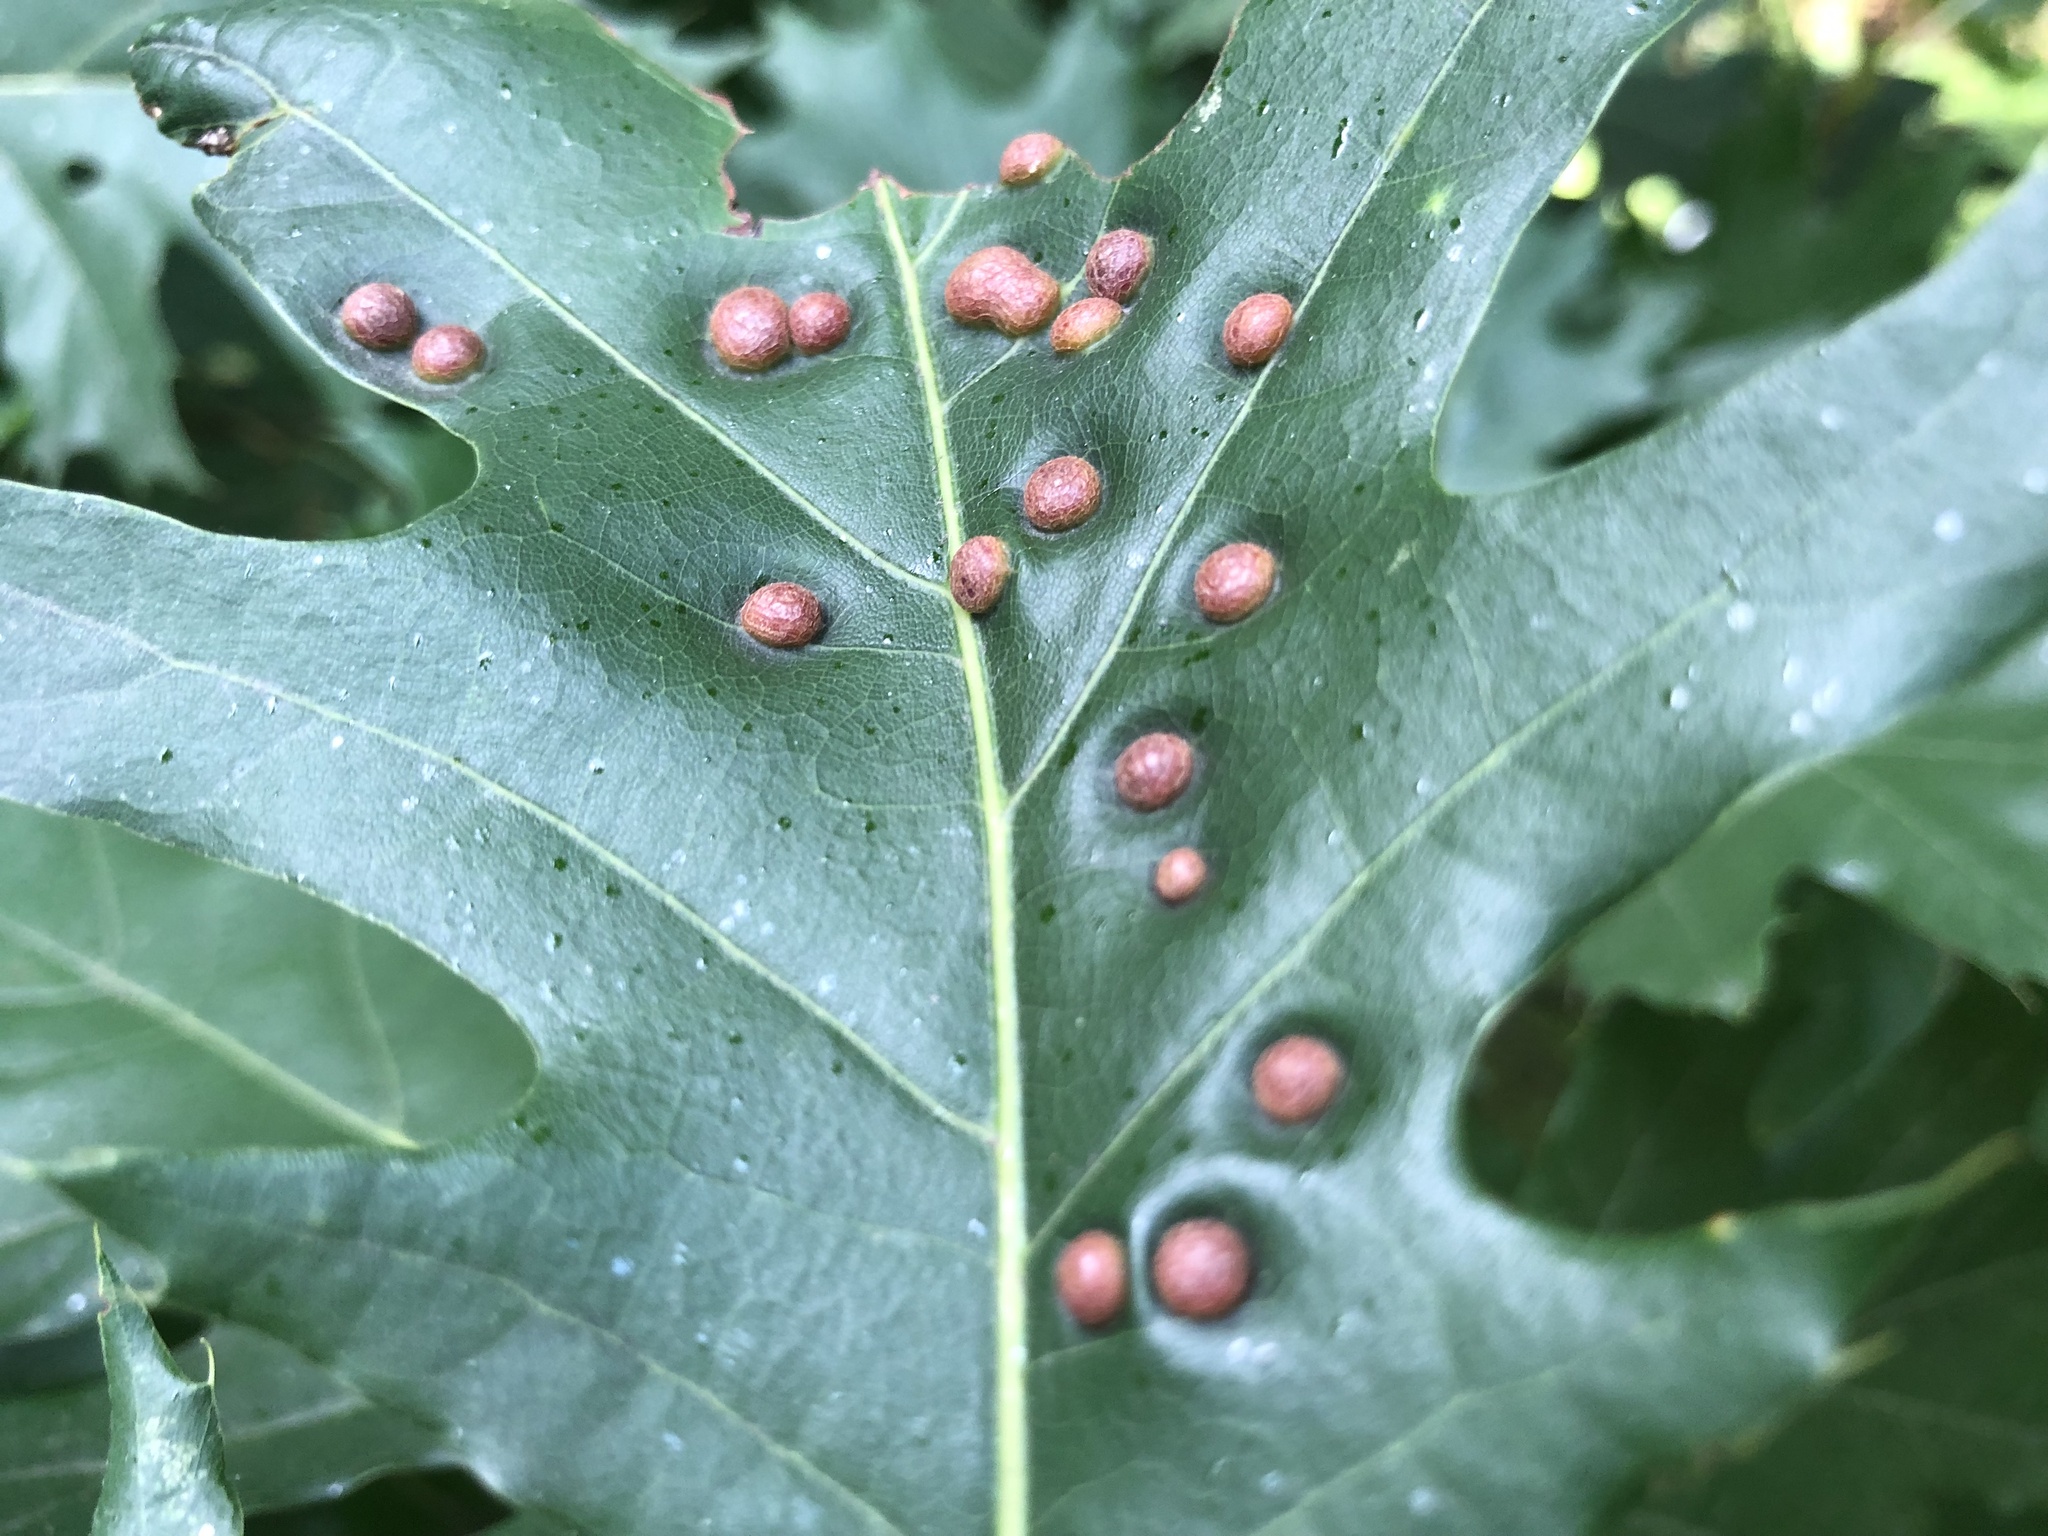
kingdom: Animalia
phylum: Arthropoda
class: Insecta
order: Diptera
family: Cecidomyiidae
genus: Polystepha
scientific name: Polystepha pilulae
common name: Oak leaf gall midge
